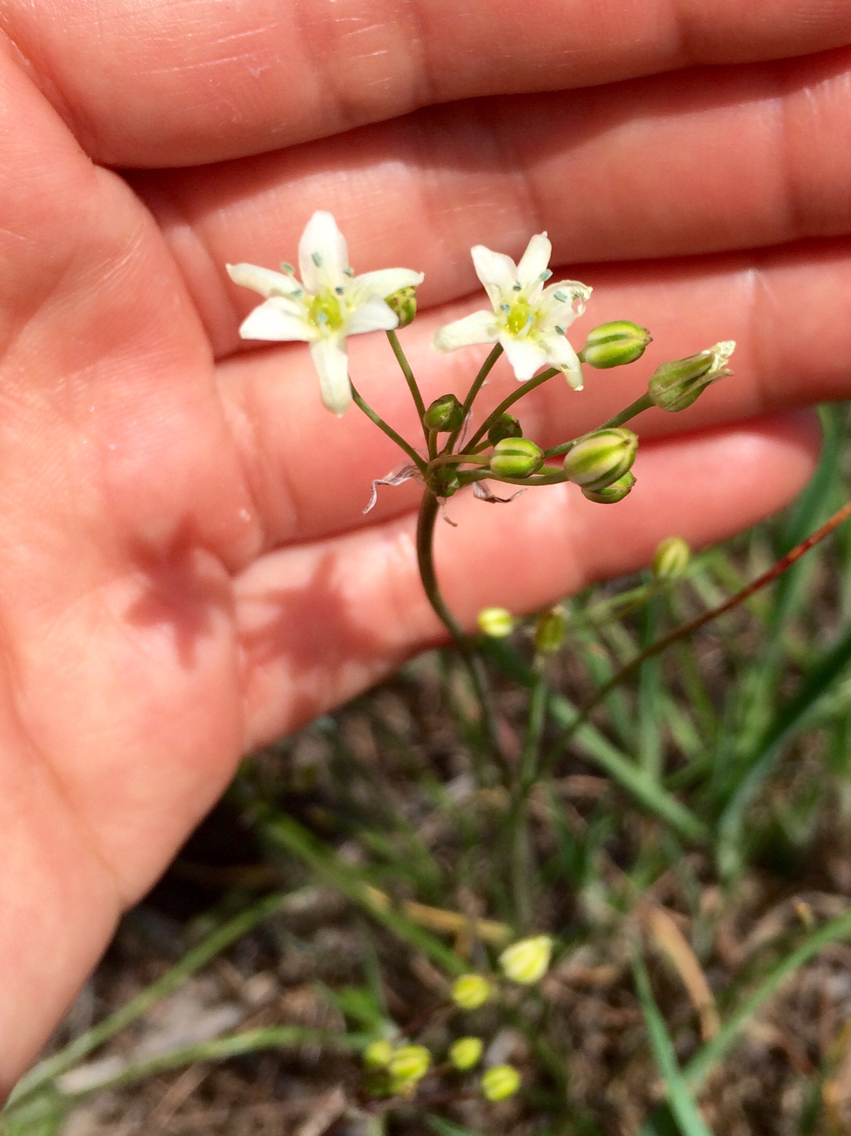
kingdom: Plantae
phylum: Tracheophyta
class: Liliopsida
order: Asparagales
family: Asparagaceae
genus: Muilla
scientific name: Muilla maritima
